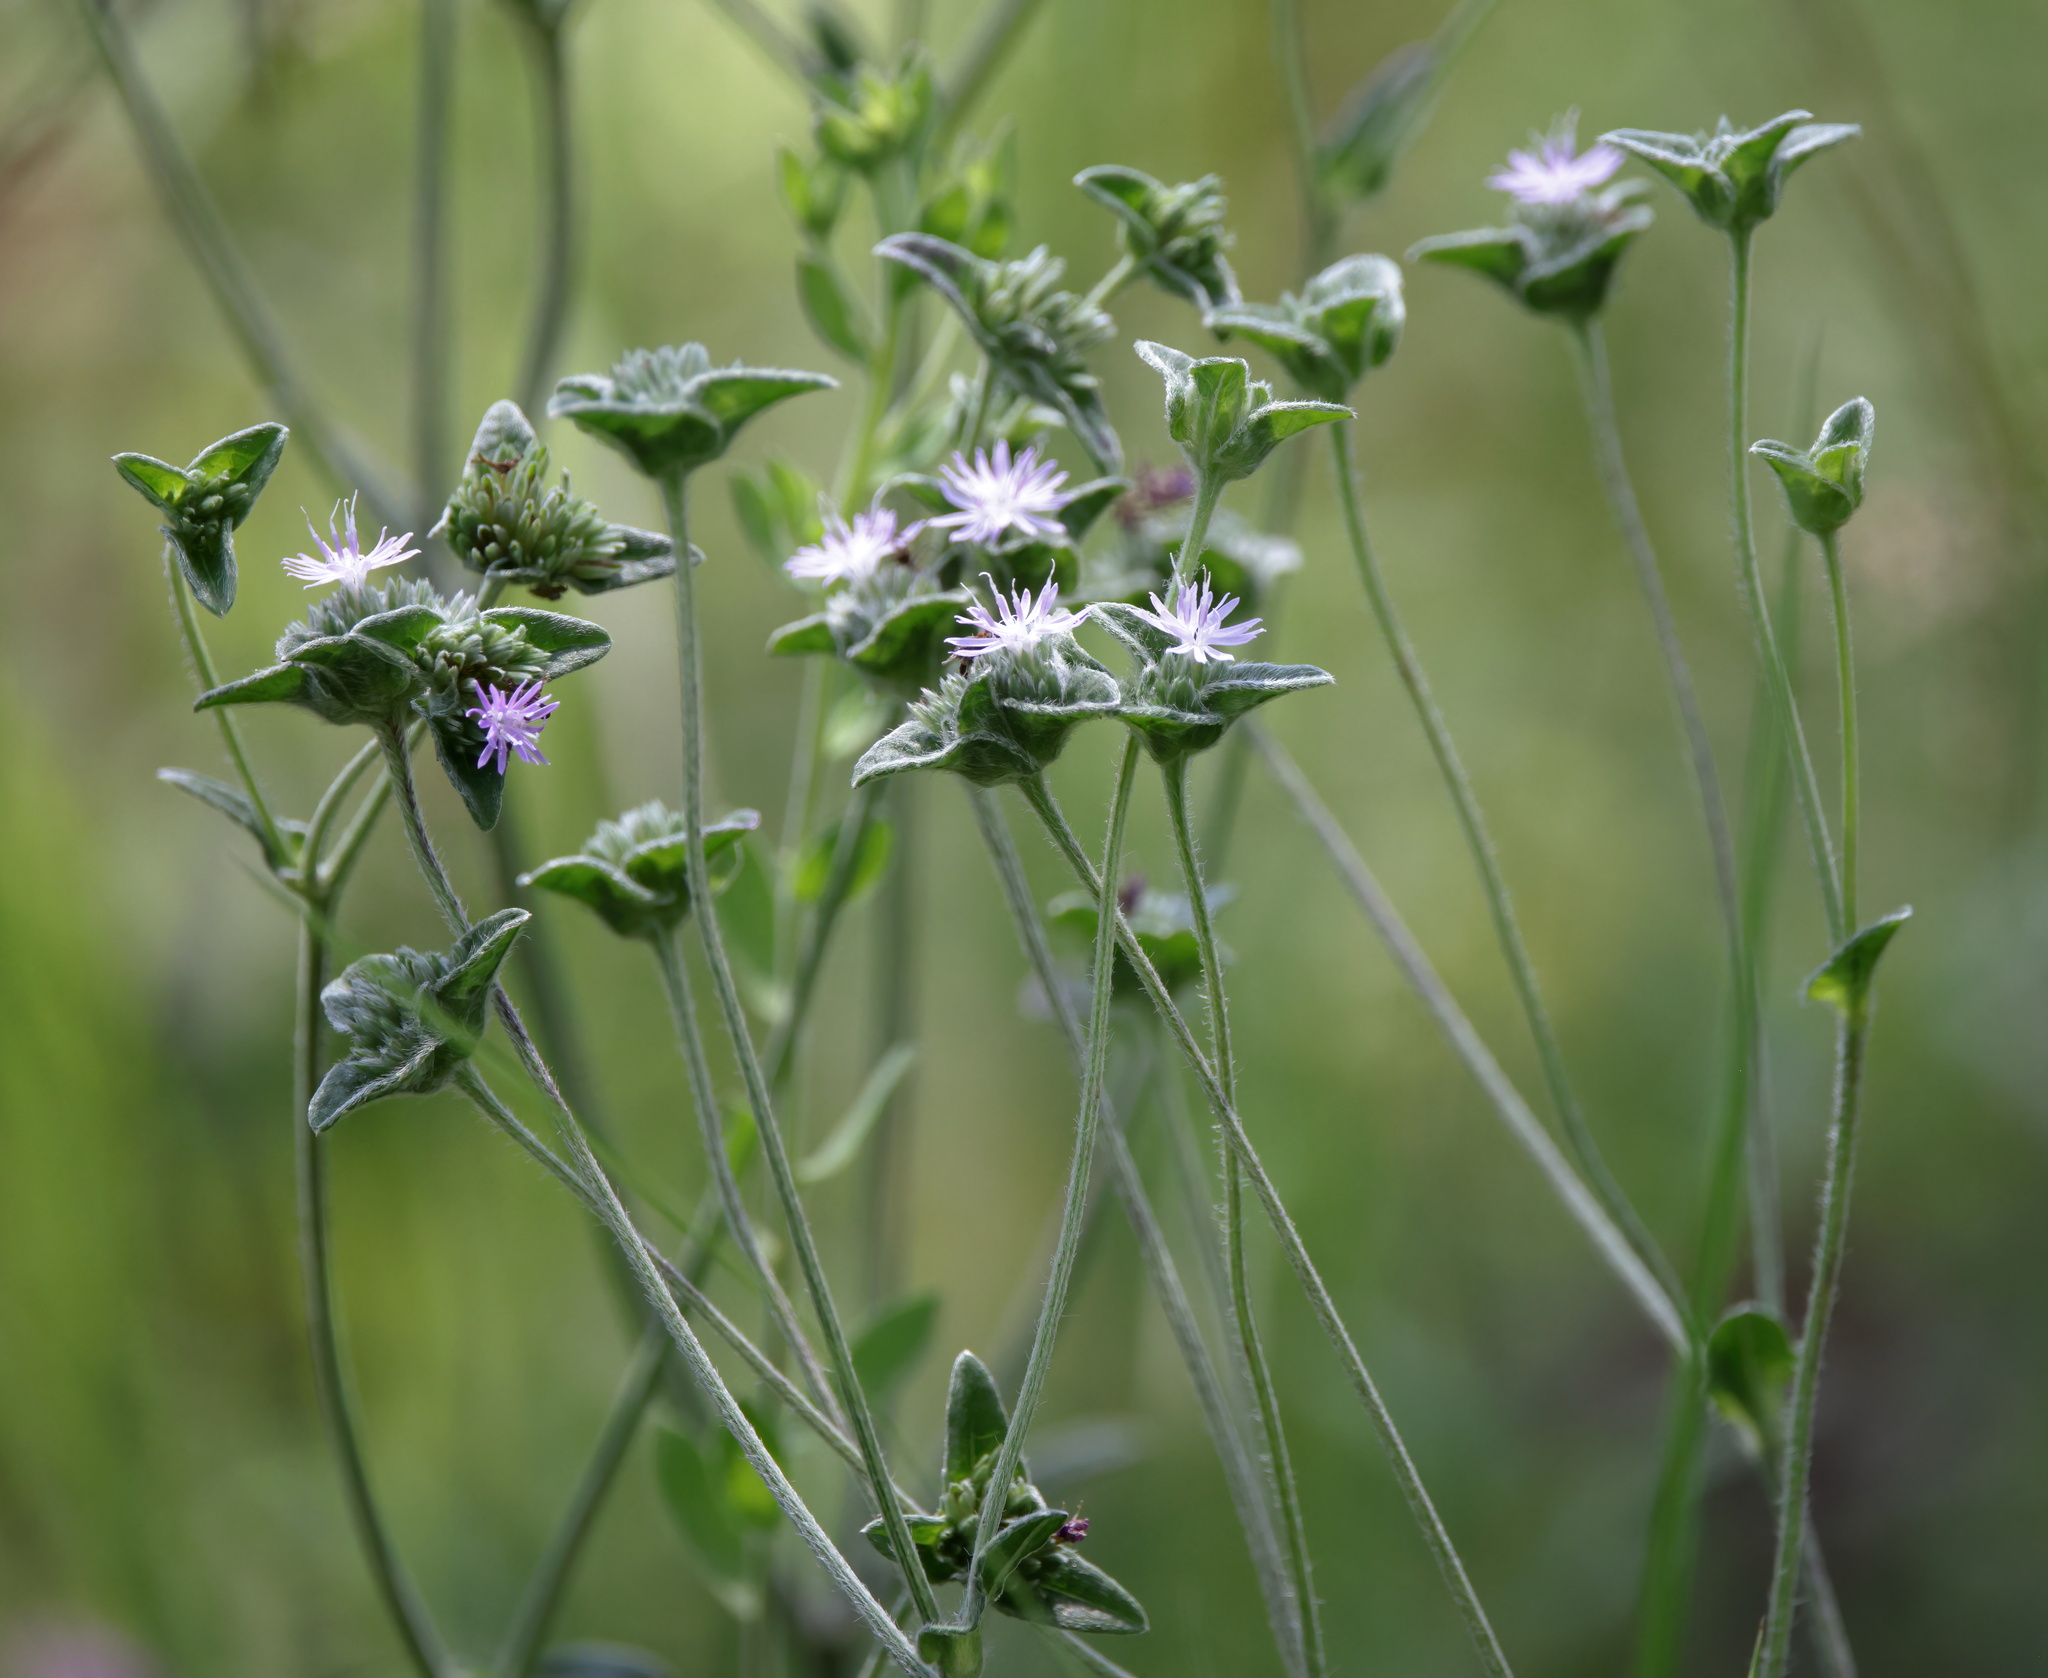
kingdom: Plantae
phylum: Tracheophyta
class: Magnoliopsida
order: Asterales
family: Asteraceae
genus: Elephantopus
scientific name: Elephantopus tomentosus
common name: Tobacco-weed
